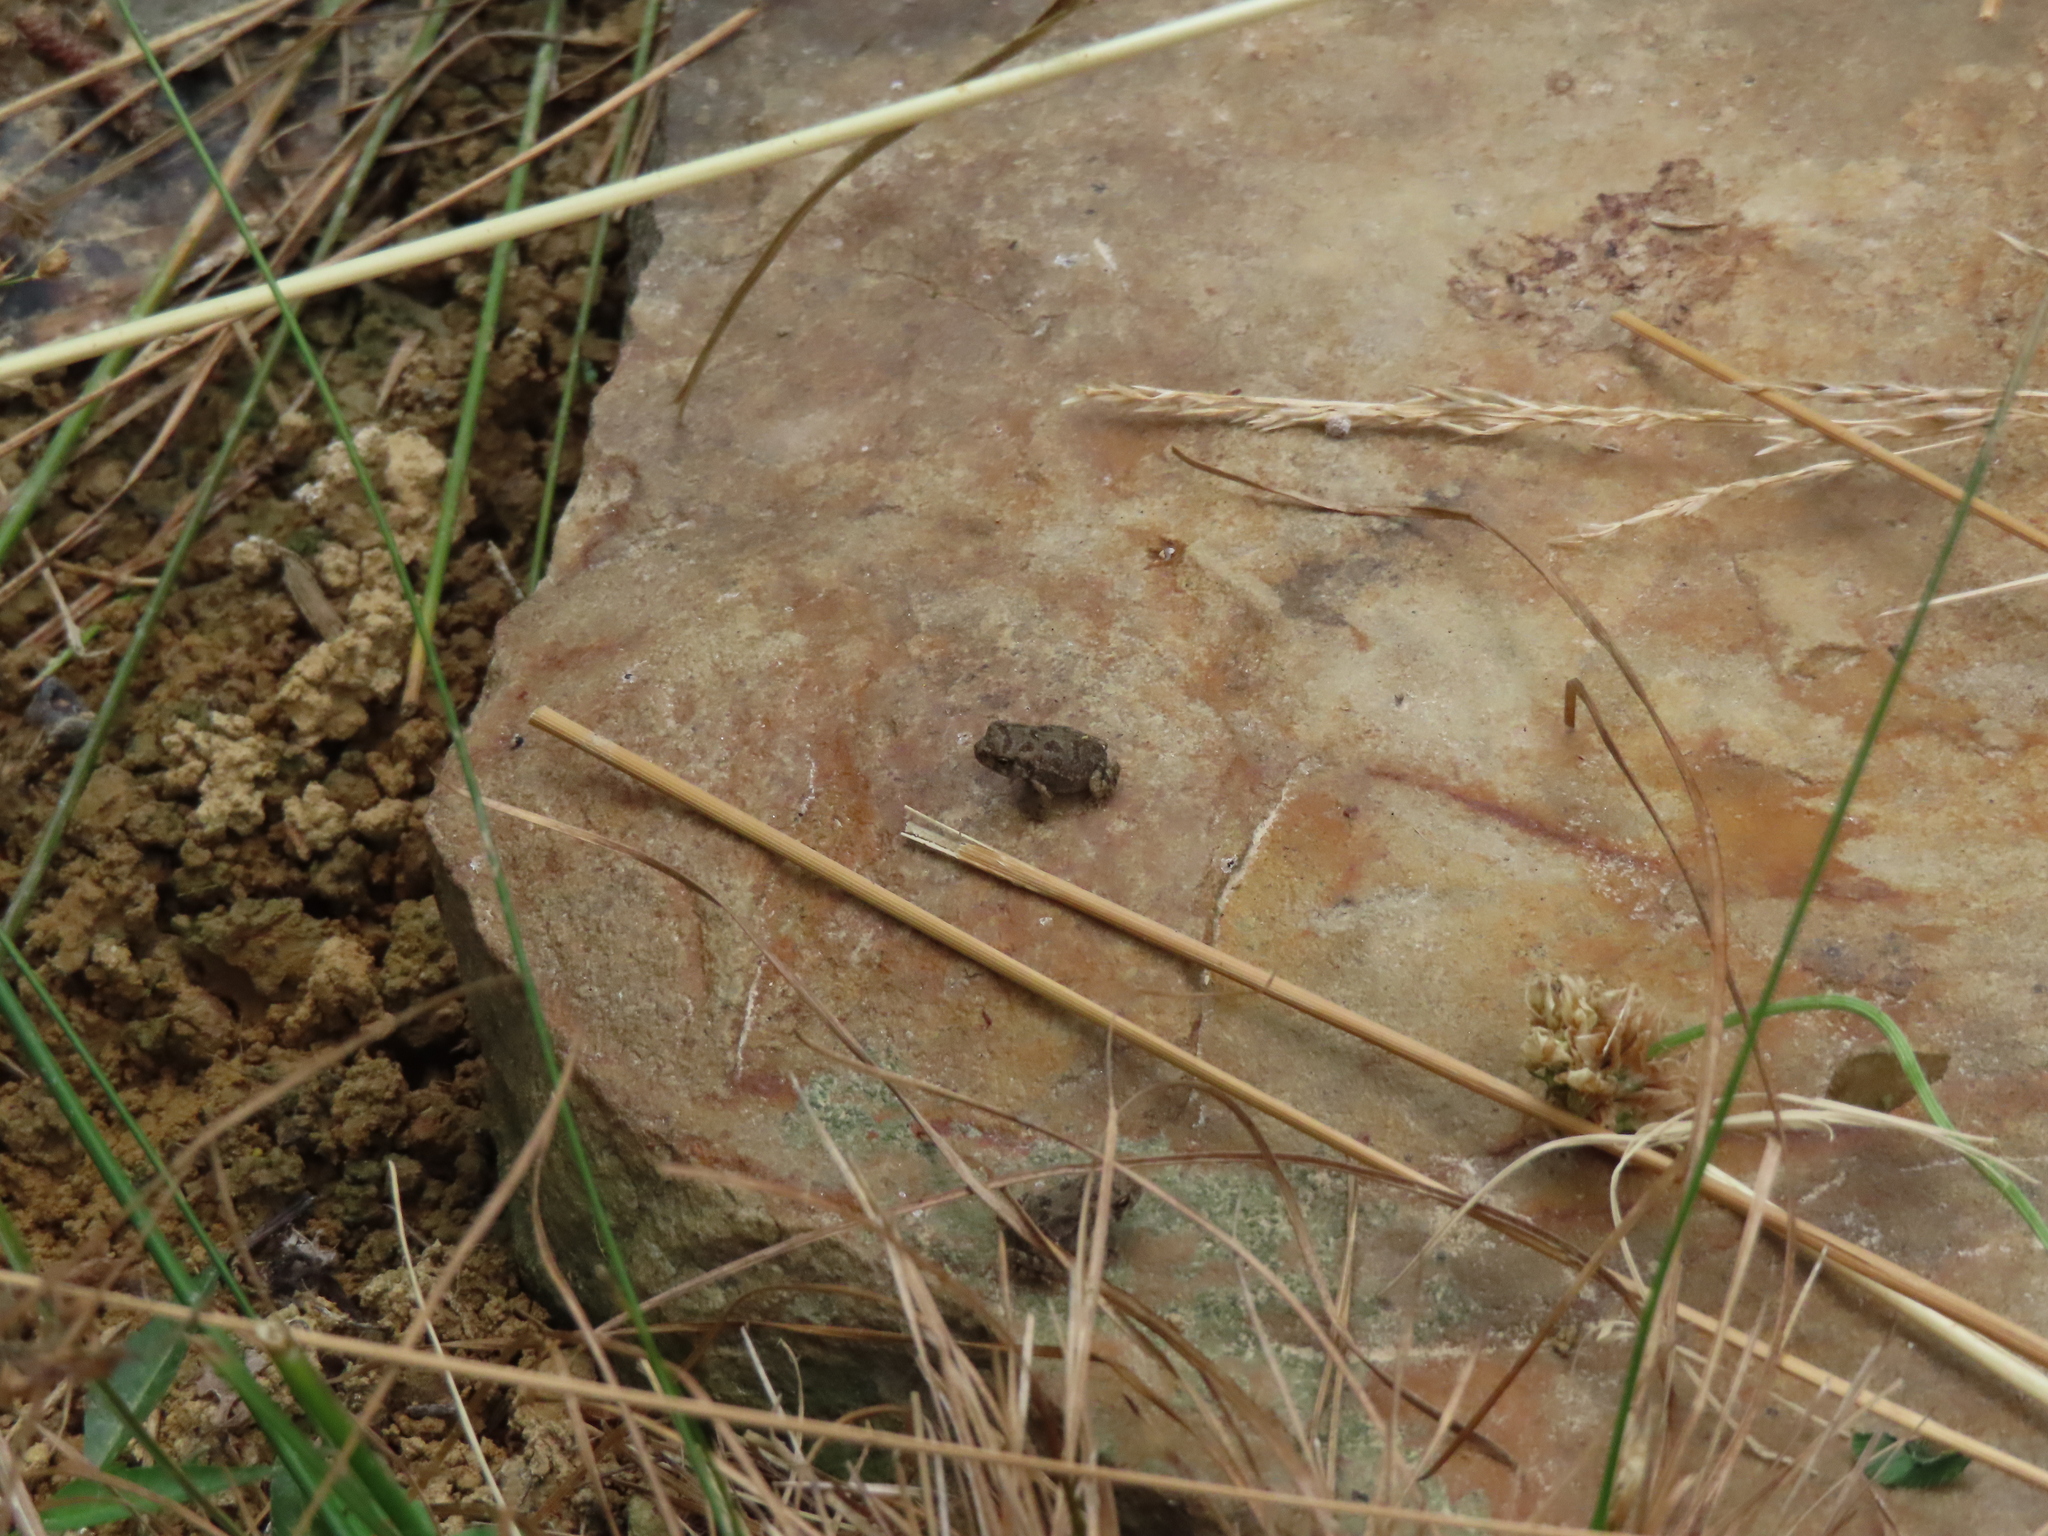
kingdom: Animalia
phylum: Chordata
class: Amphibia
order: Anura
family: Bufonidae
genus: Anaxyrus
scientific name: Anaxyrus fowleri
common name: Fowler's toad
